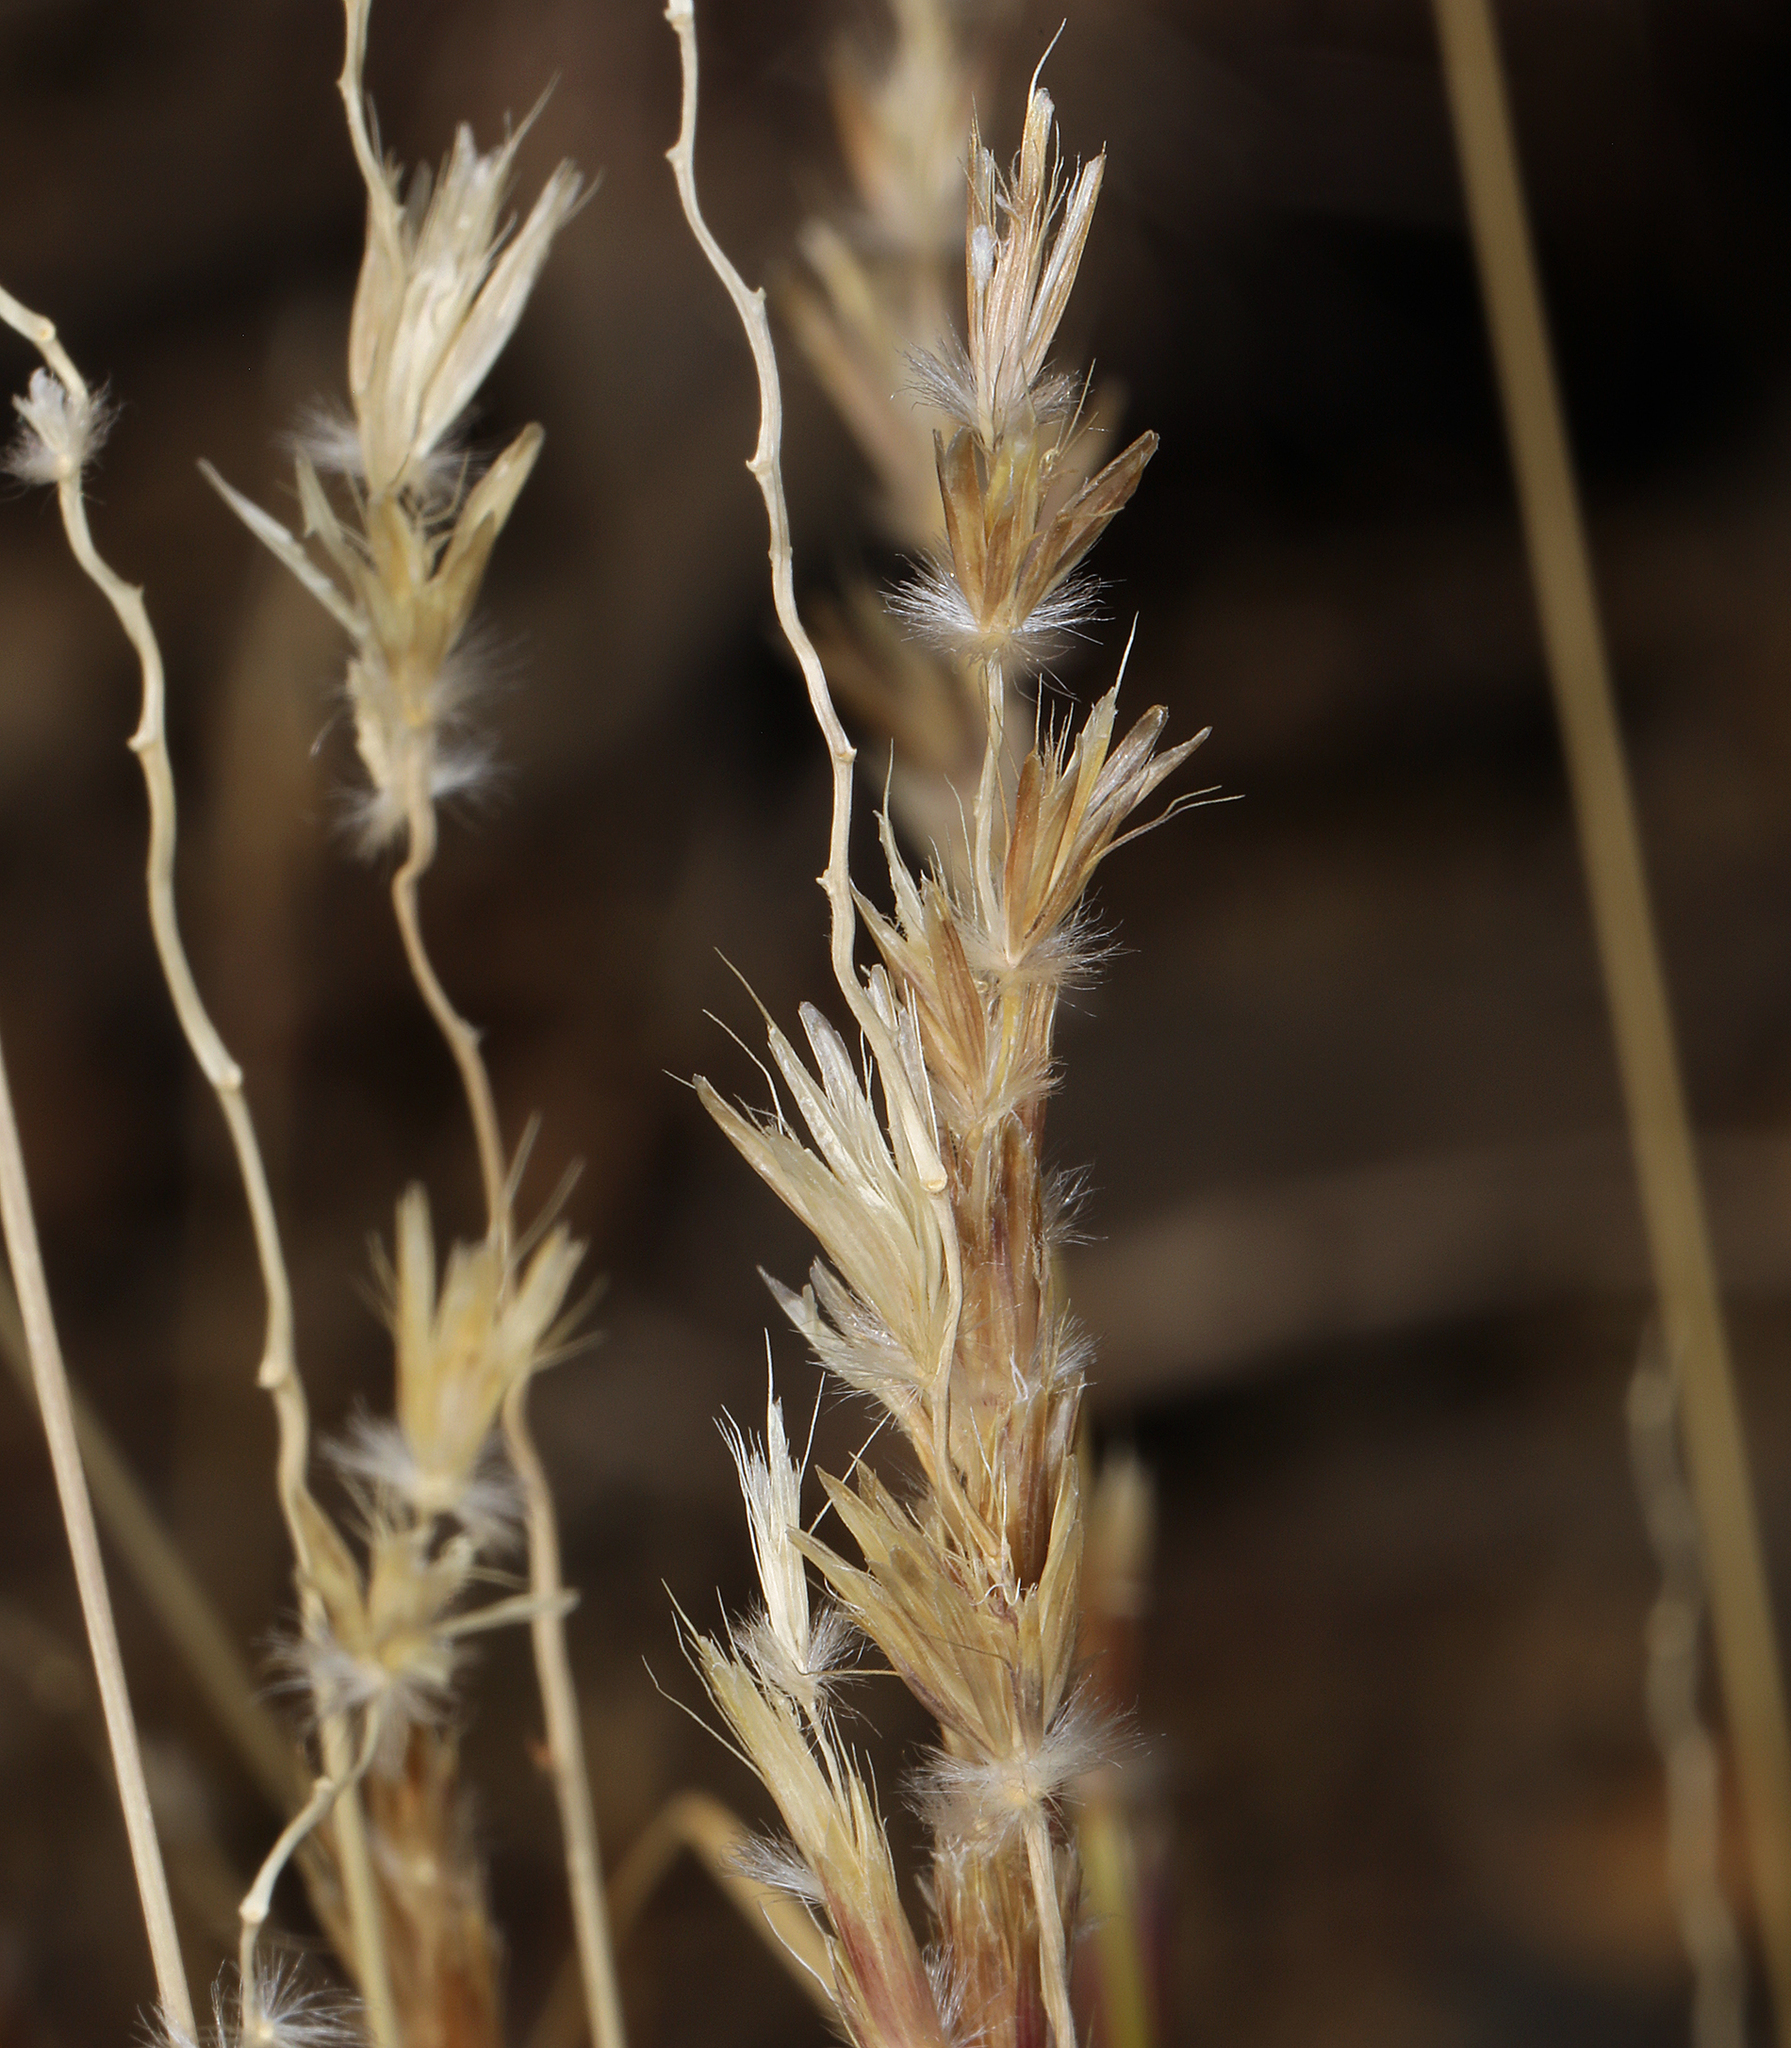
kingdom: Plantae
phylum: Tracheophyta
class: Liliopsida
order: Poales
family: Poaceae
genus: Hilaria
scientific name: Hilaria jamesii
